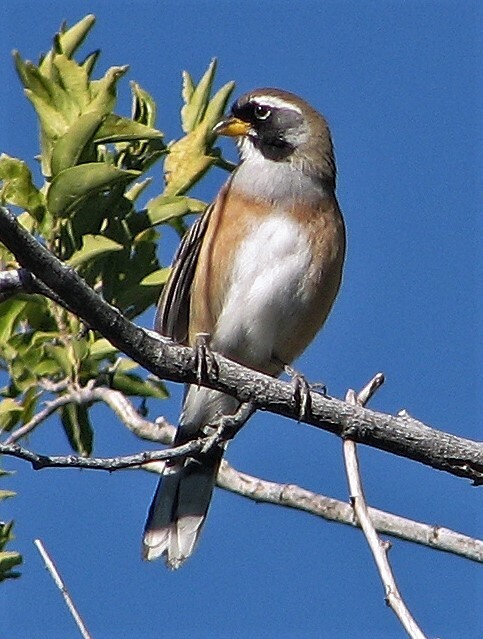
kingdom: Animalia
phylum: Chordata
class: Aves
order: Passeriformes
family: Thraupidae
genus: Saltatricula
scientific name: Saltatricula multicolor
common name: Many-colored chaco finch
